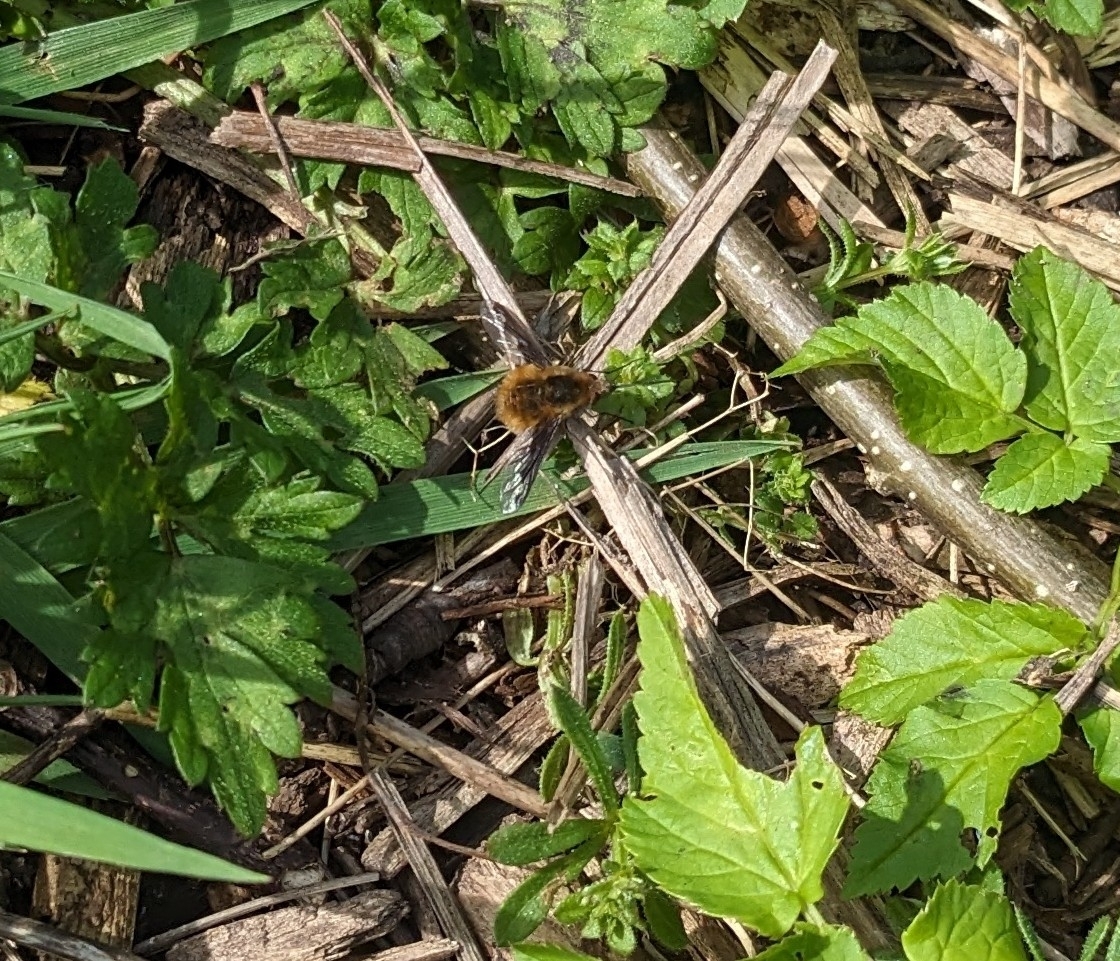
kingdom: Animalia
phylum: Arthropoda
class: Insecta
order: Diptera
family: Bombyliidae
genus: Bombylius
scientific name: Bombylius major
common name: Bee fly
